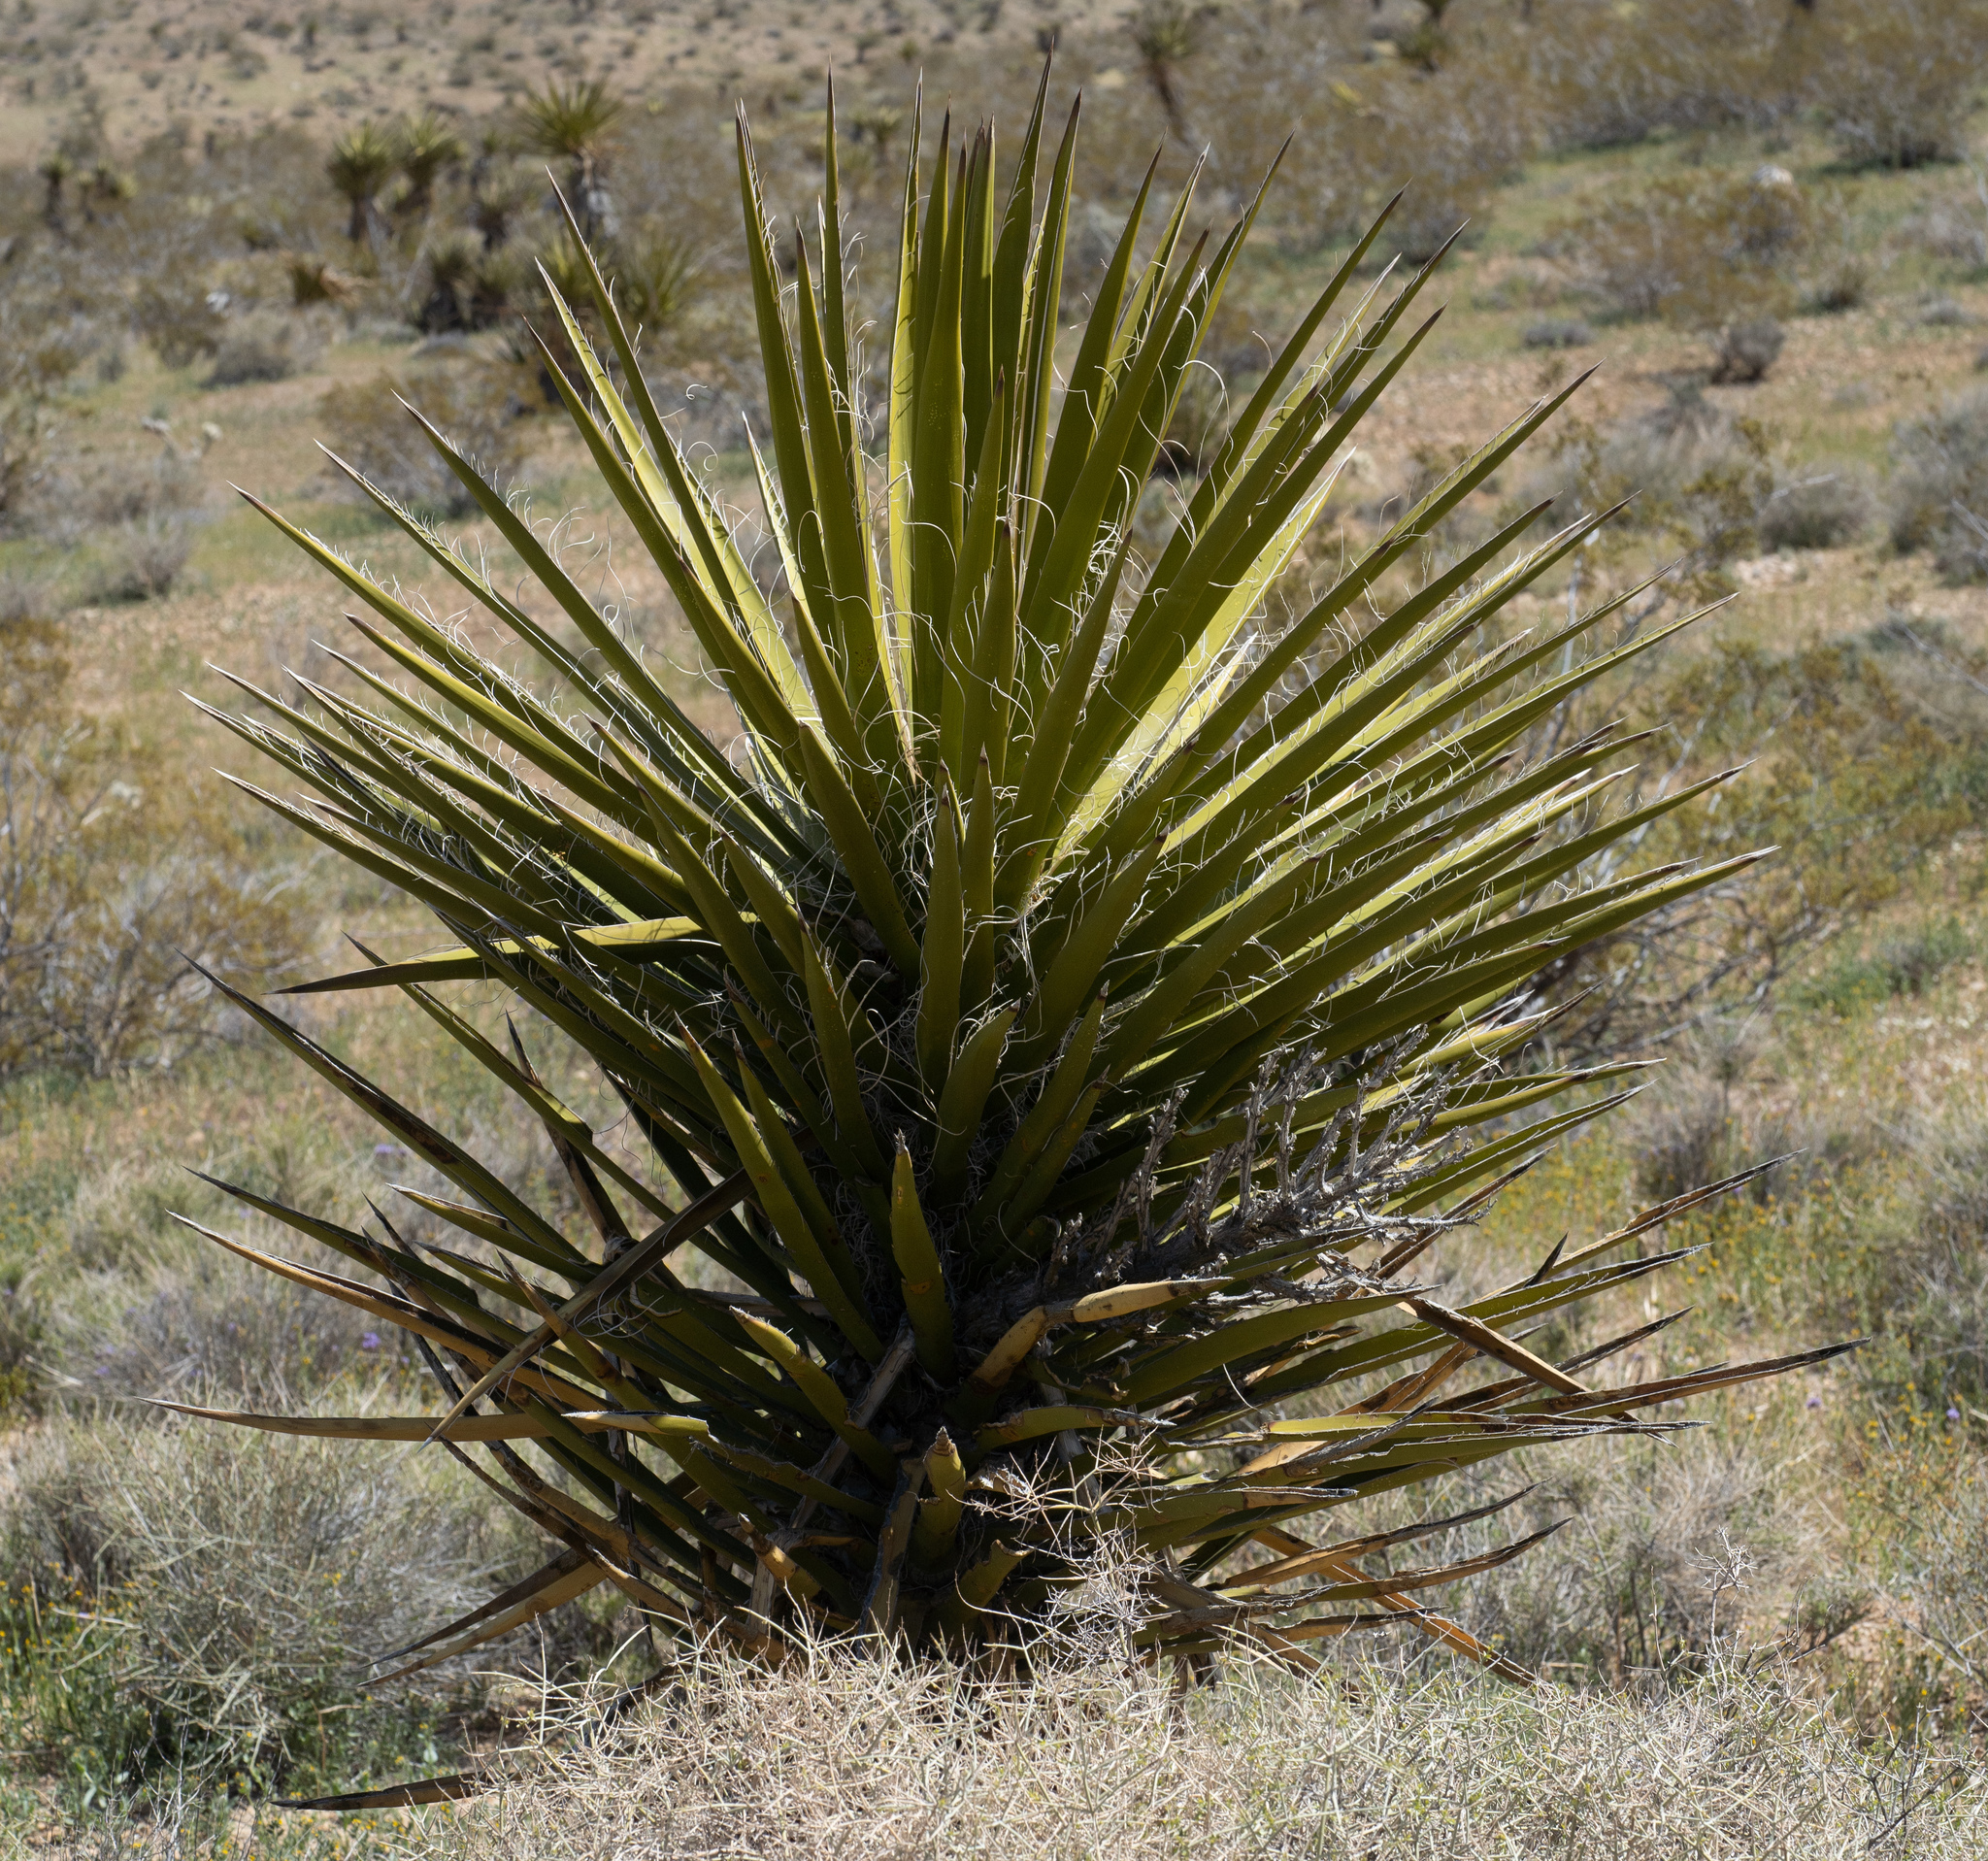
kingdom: Plantae
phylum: Tracheophyta
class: Liliopsida
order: Asparagales
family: Asparagaceae
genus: Yucca
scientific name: Yucca schidigera
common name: Mojave yucca
